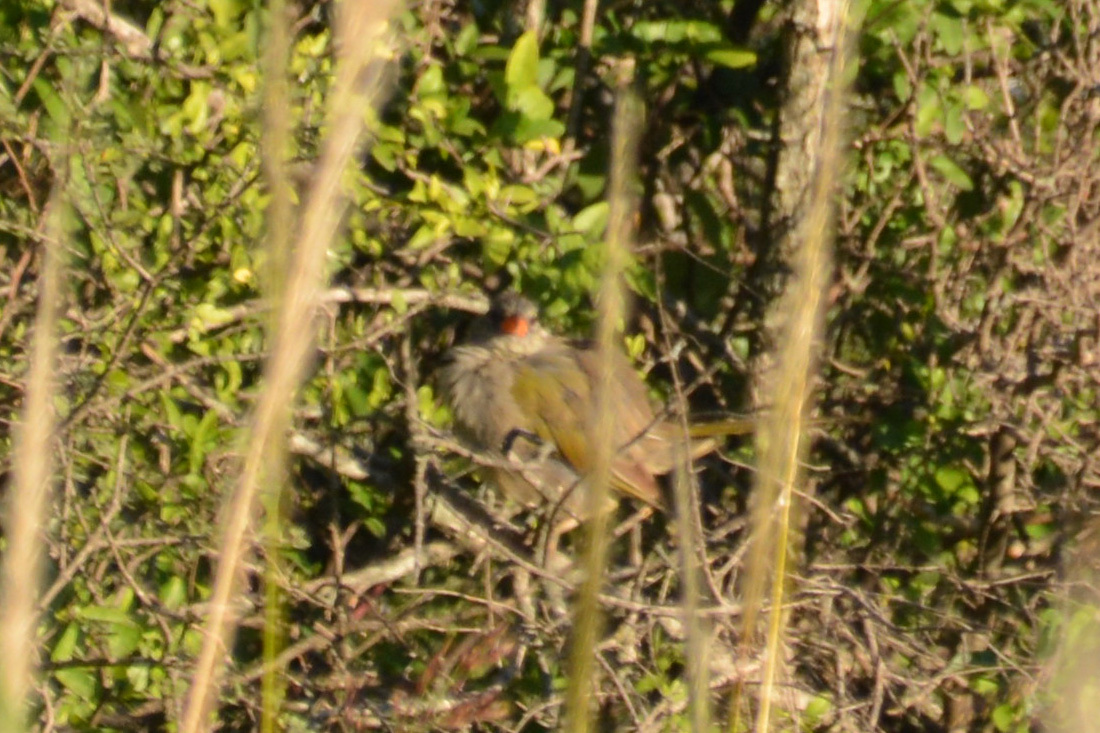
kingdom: Animalia
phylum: Chordata
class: Aves
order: Passeriformes
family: Thraupidae
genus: Embernagra
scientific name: Embernagra platensis
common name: Pampa finch
